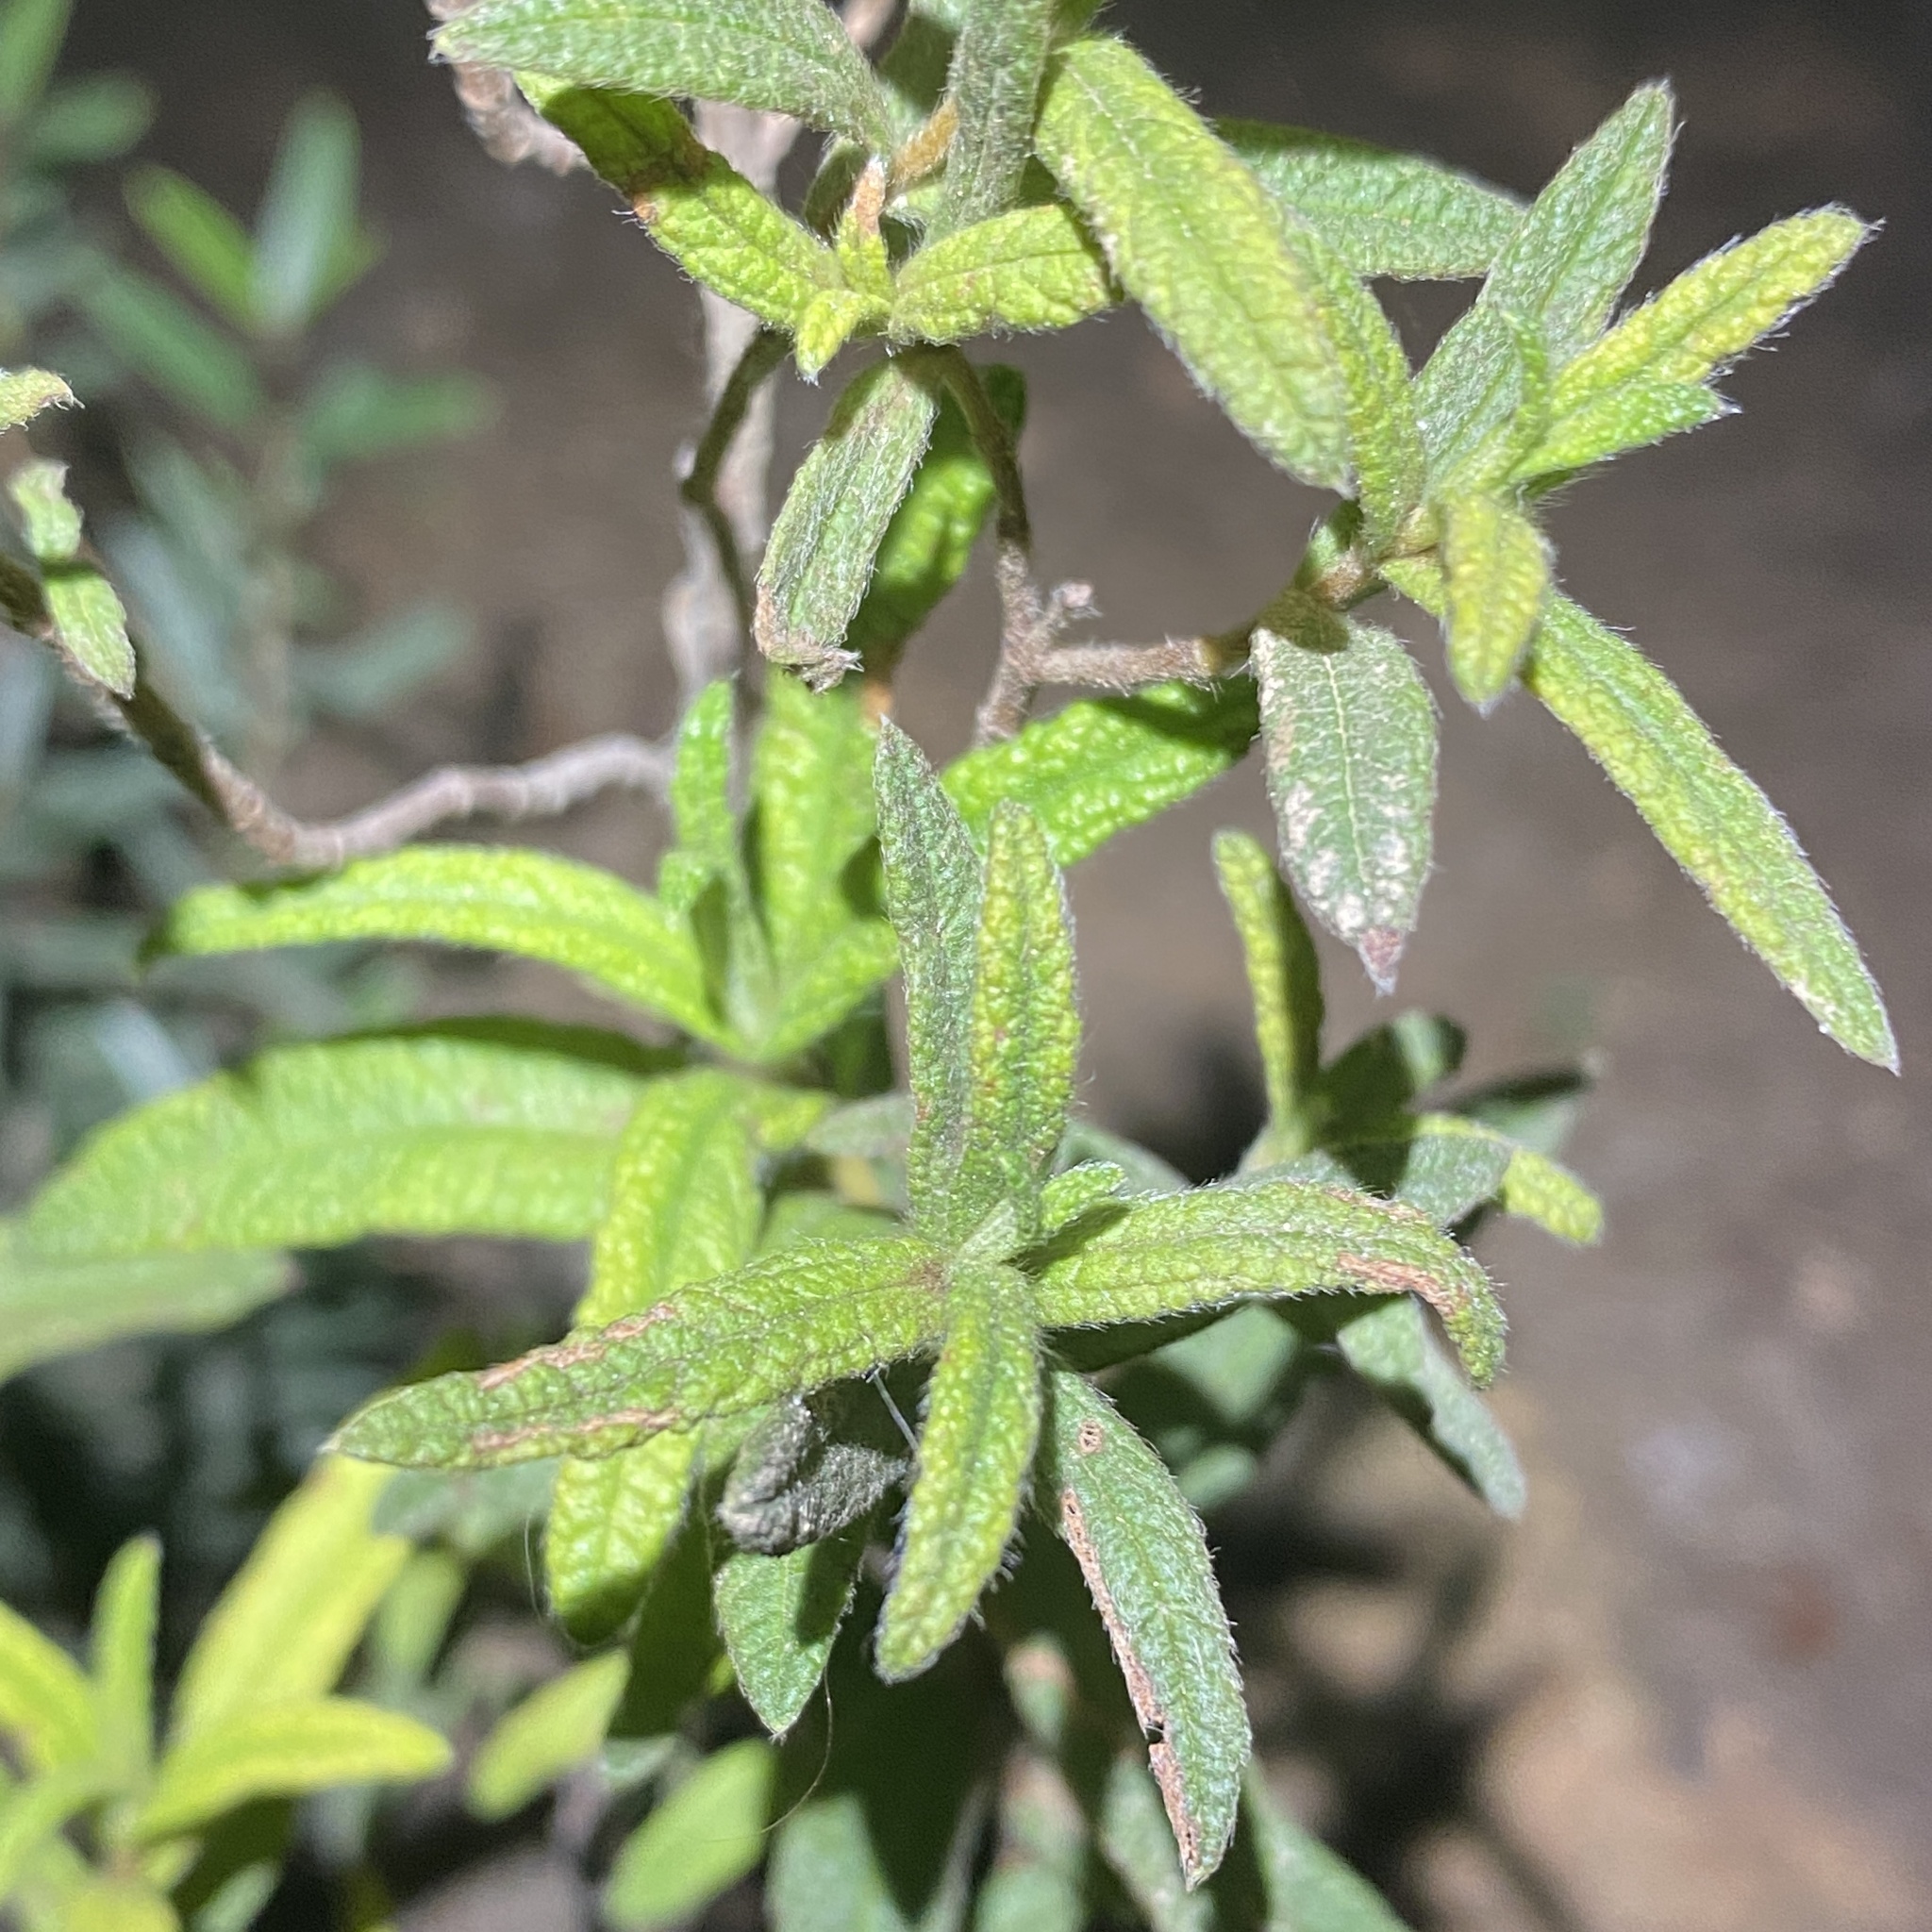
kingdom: Plantae
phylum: Tracheophyta
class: Magnoliopsida
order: Malvales
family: Cistaceae
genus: Cistus
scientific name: Cistus monspeliensis
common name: Montpelier cistus
